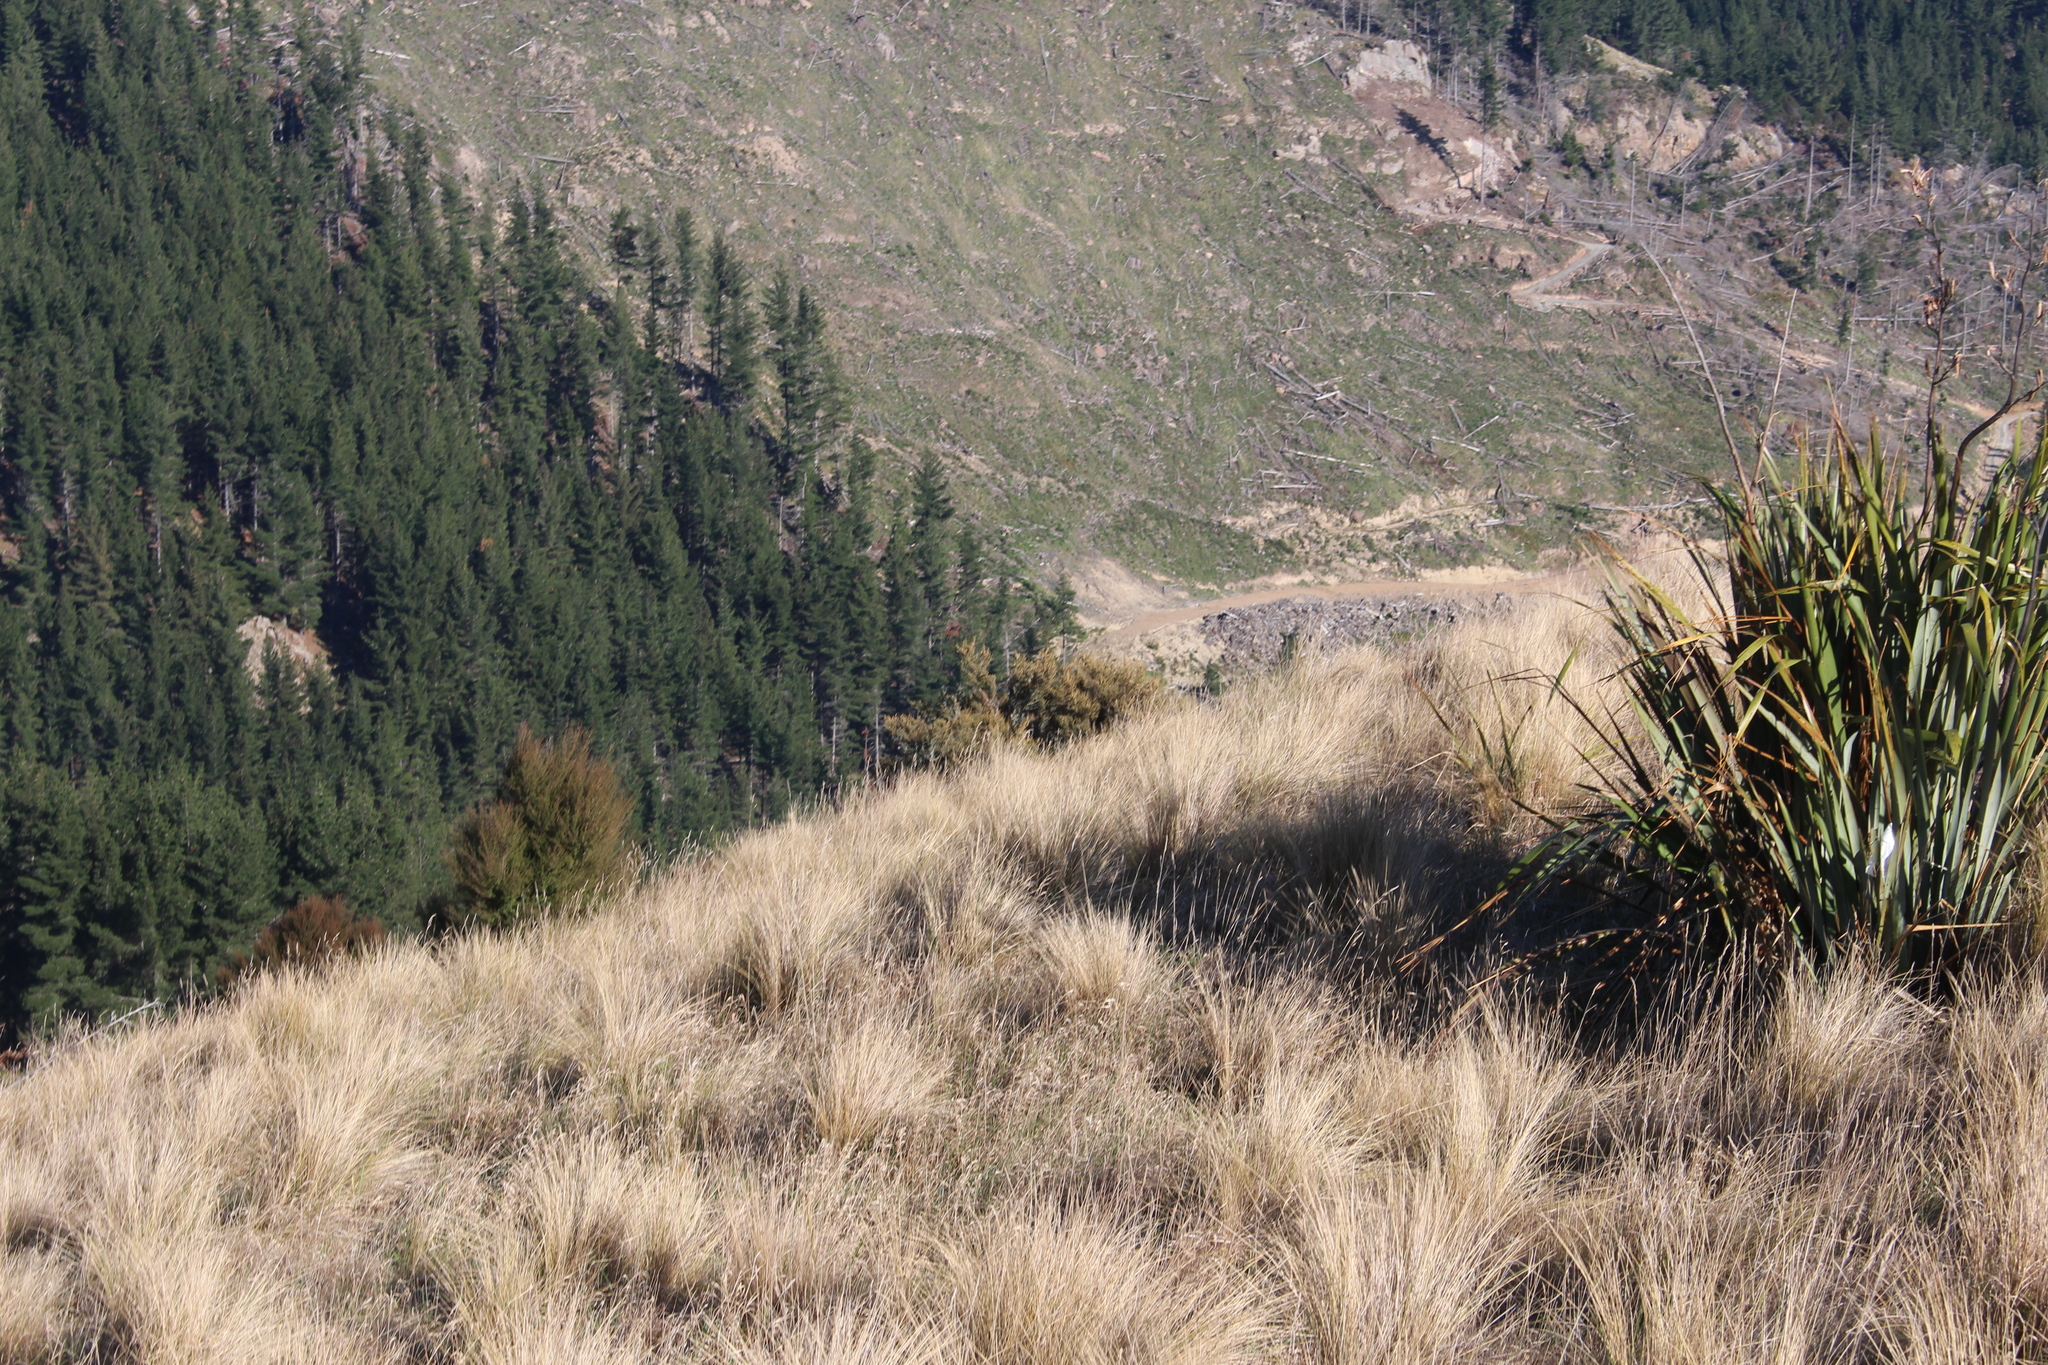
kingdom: Plantae
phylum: Tracheophyta
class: Magnoliopsida
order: Asterales
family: Asteraceae
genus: Olearia
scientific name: Olearia solandri
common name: Coastal daisybush
